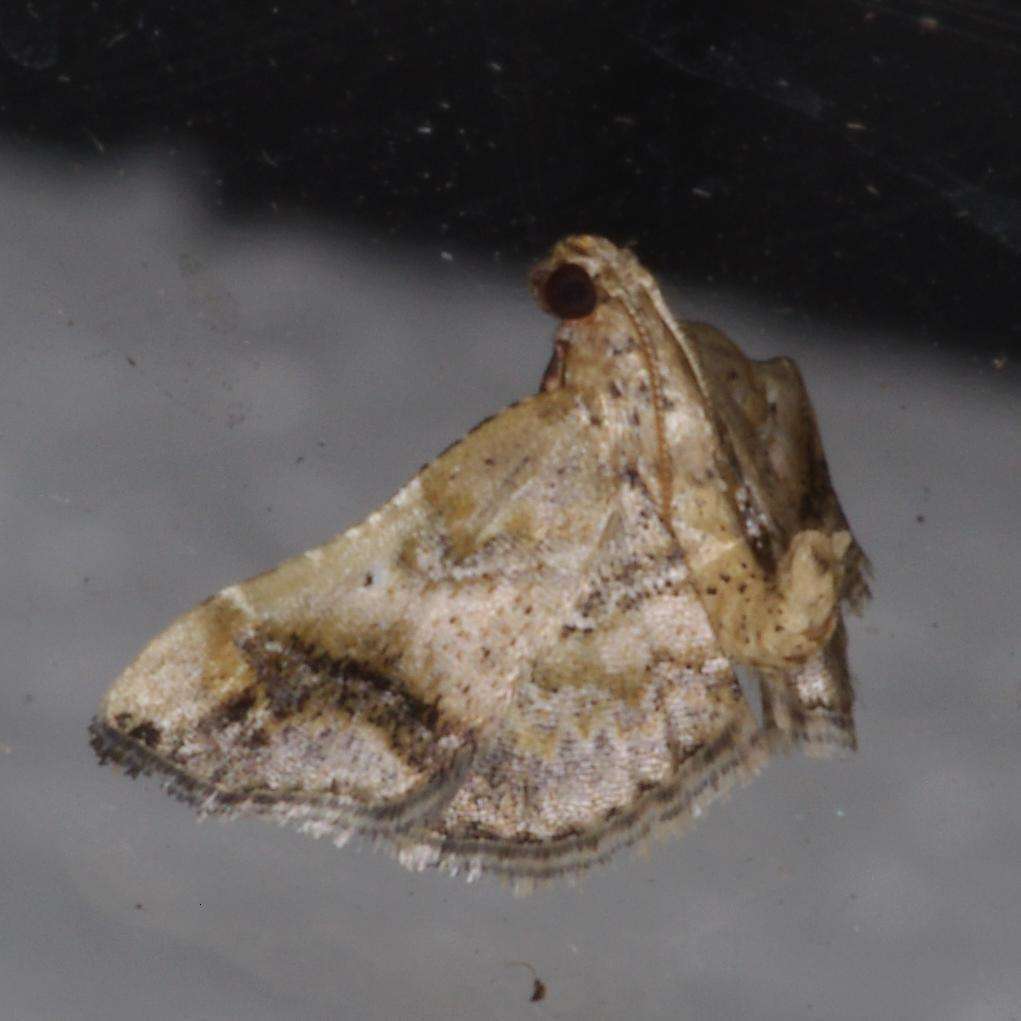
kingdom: Animalia
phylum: Arthropoda
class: Insecta
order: Lepidoptera
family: Pyralidae
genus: Scenedra
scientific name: Scenedra decoratalis
